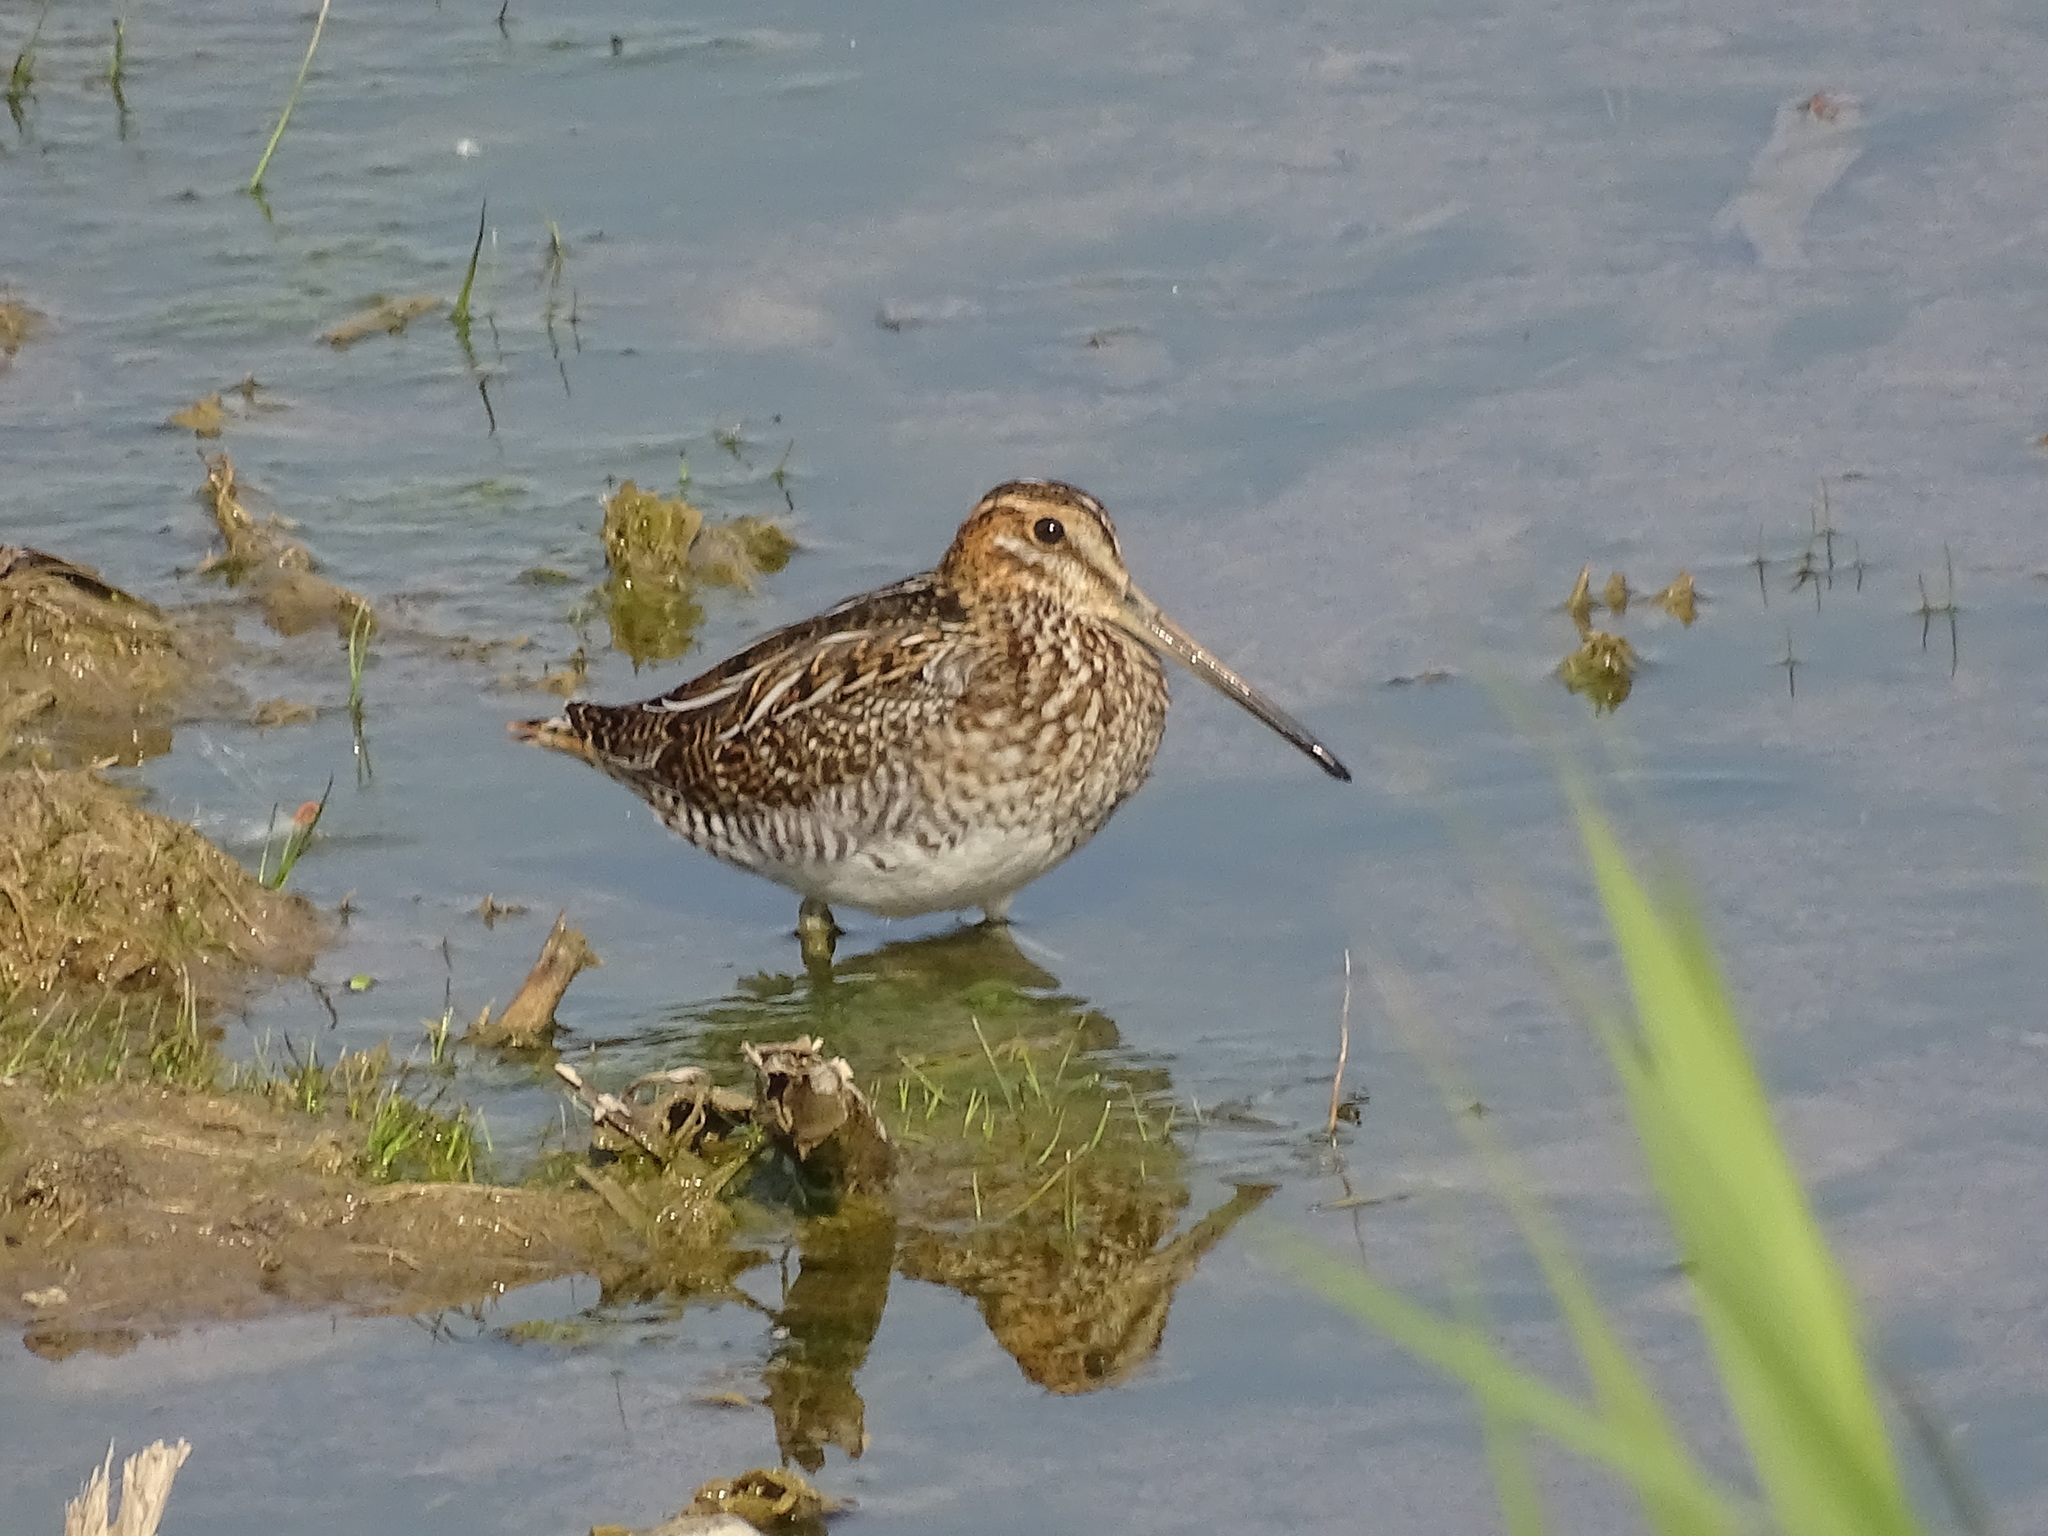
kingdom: Animalia
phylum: Chordata
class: Aves
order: Charadriiformes
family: Scolopacidae
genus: Gallinago
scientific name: Gallinago delicata
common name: Wilson's snipe
